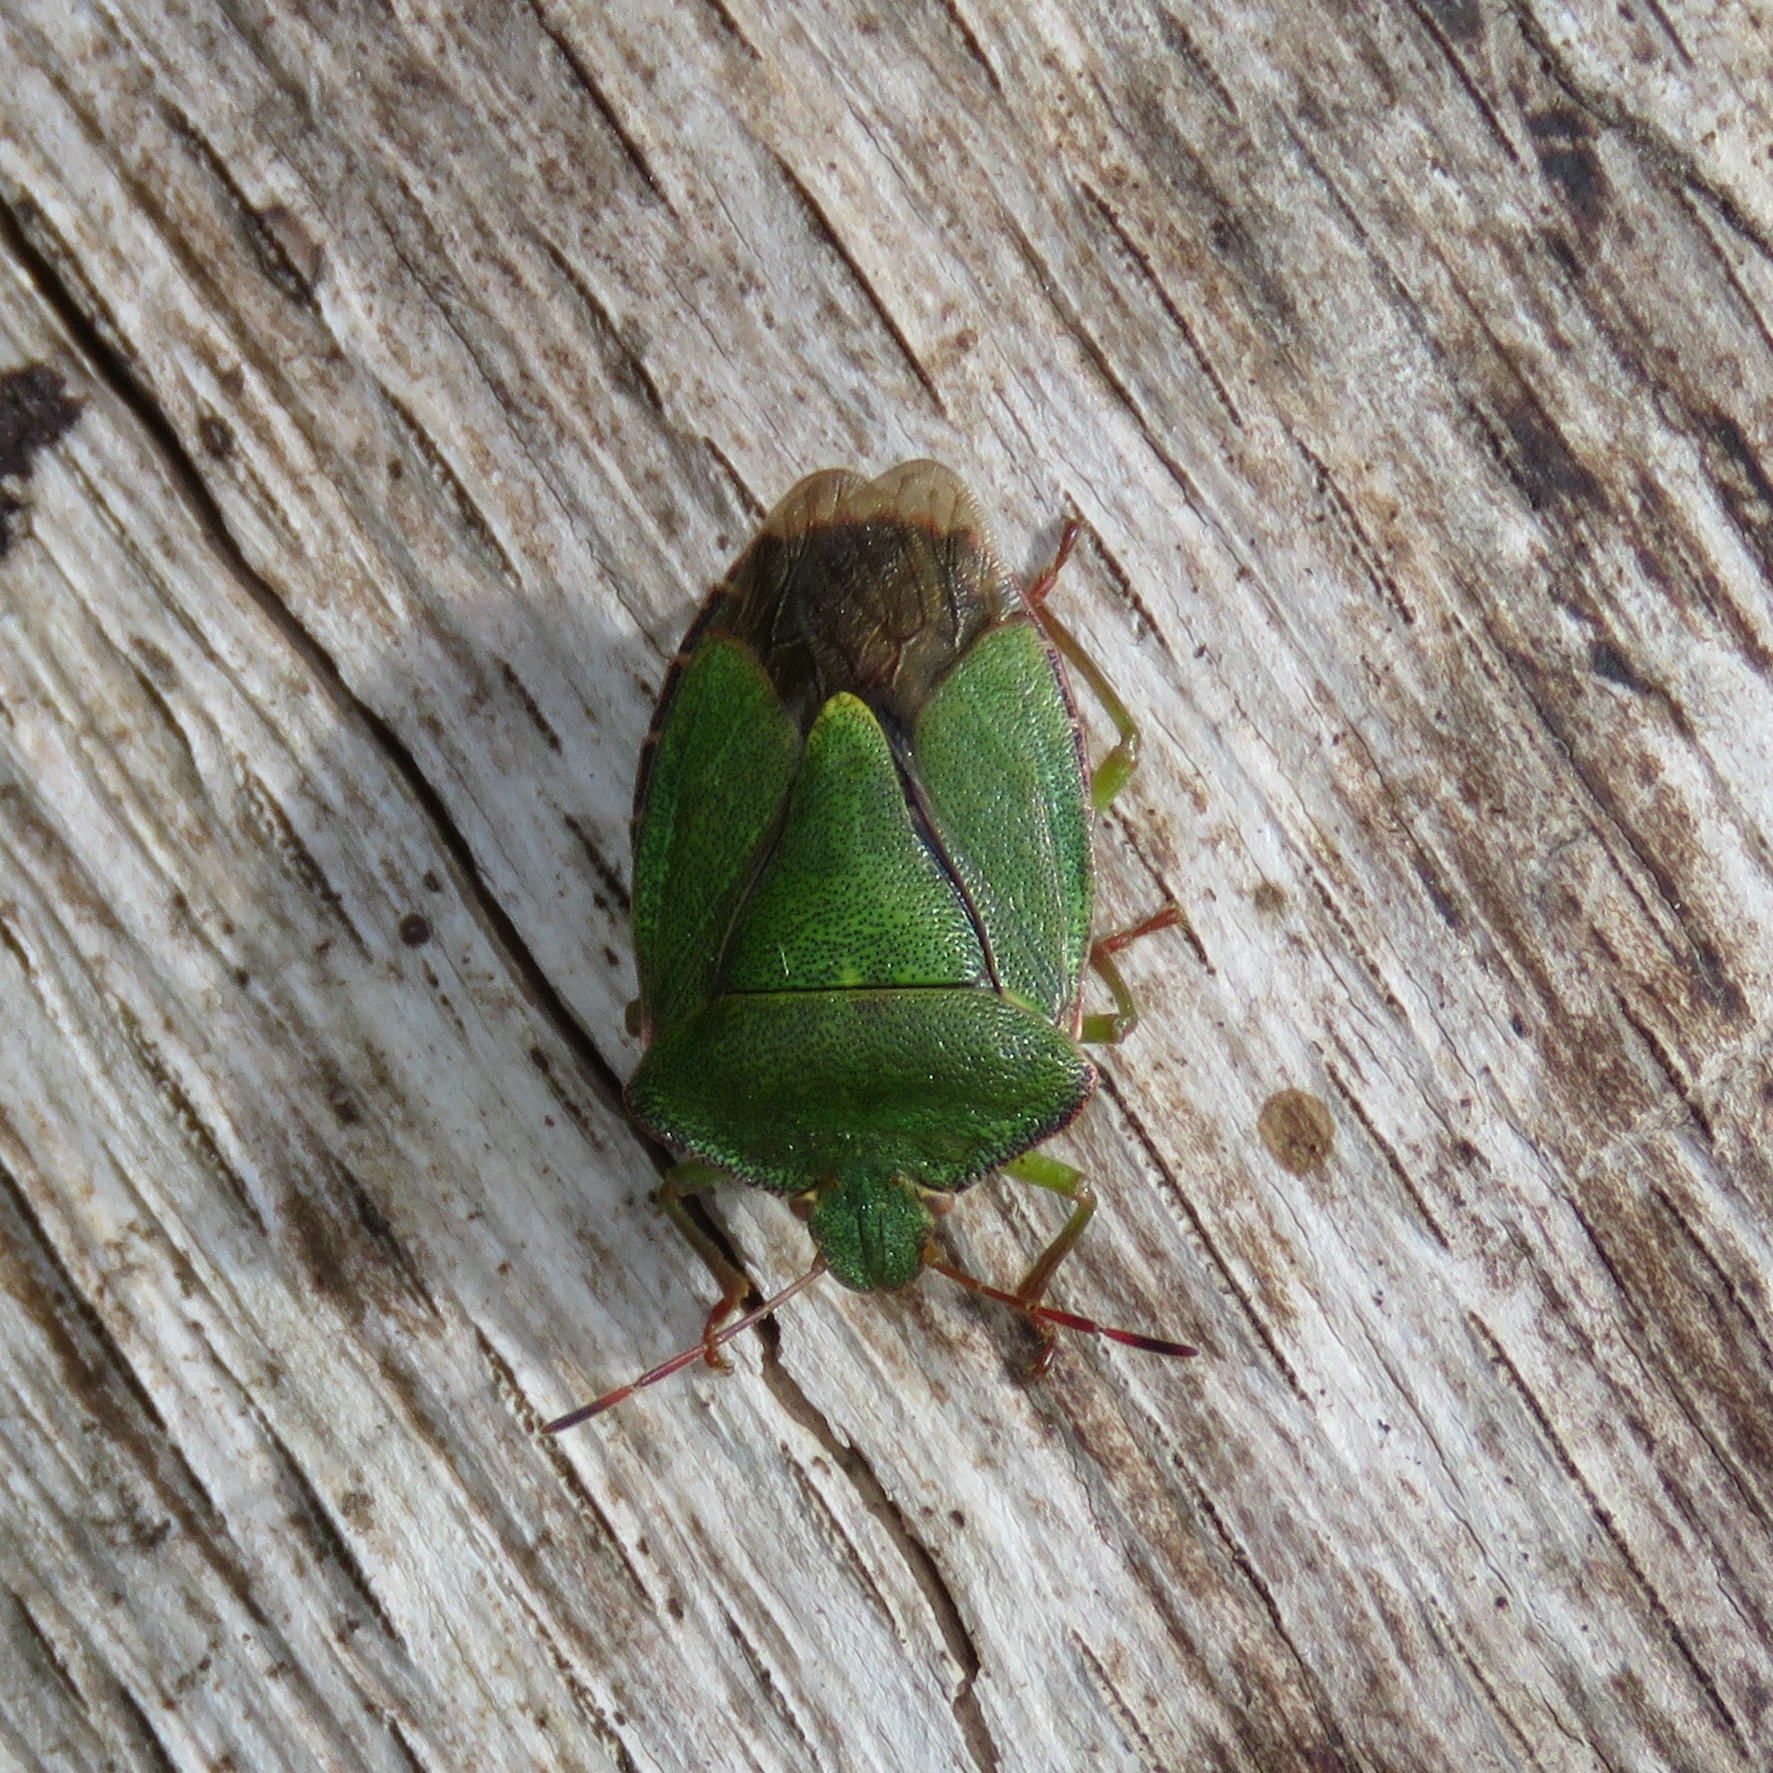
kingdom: Animalia
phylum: Arthropoda
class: Insecta
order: Hemiptera
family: Pentatomidae
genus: Palomena
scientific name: Palomena prasina
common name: Green shieldbug
